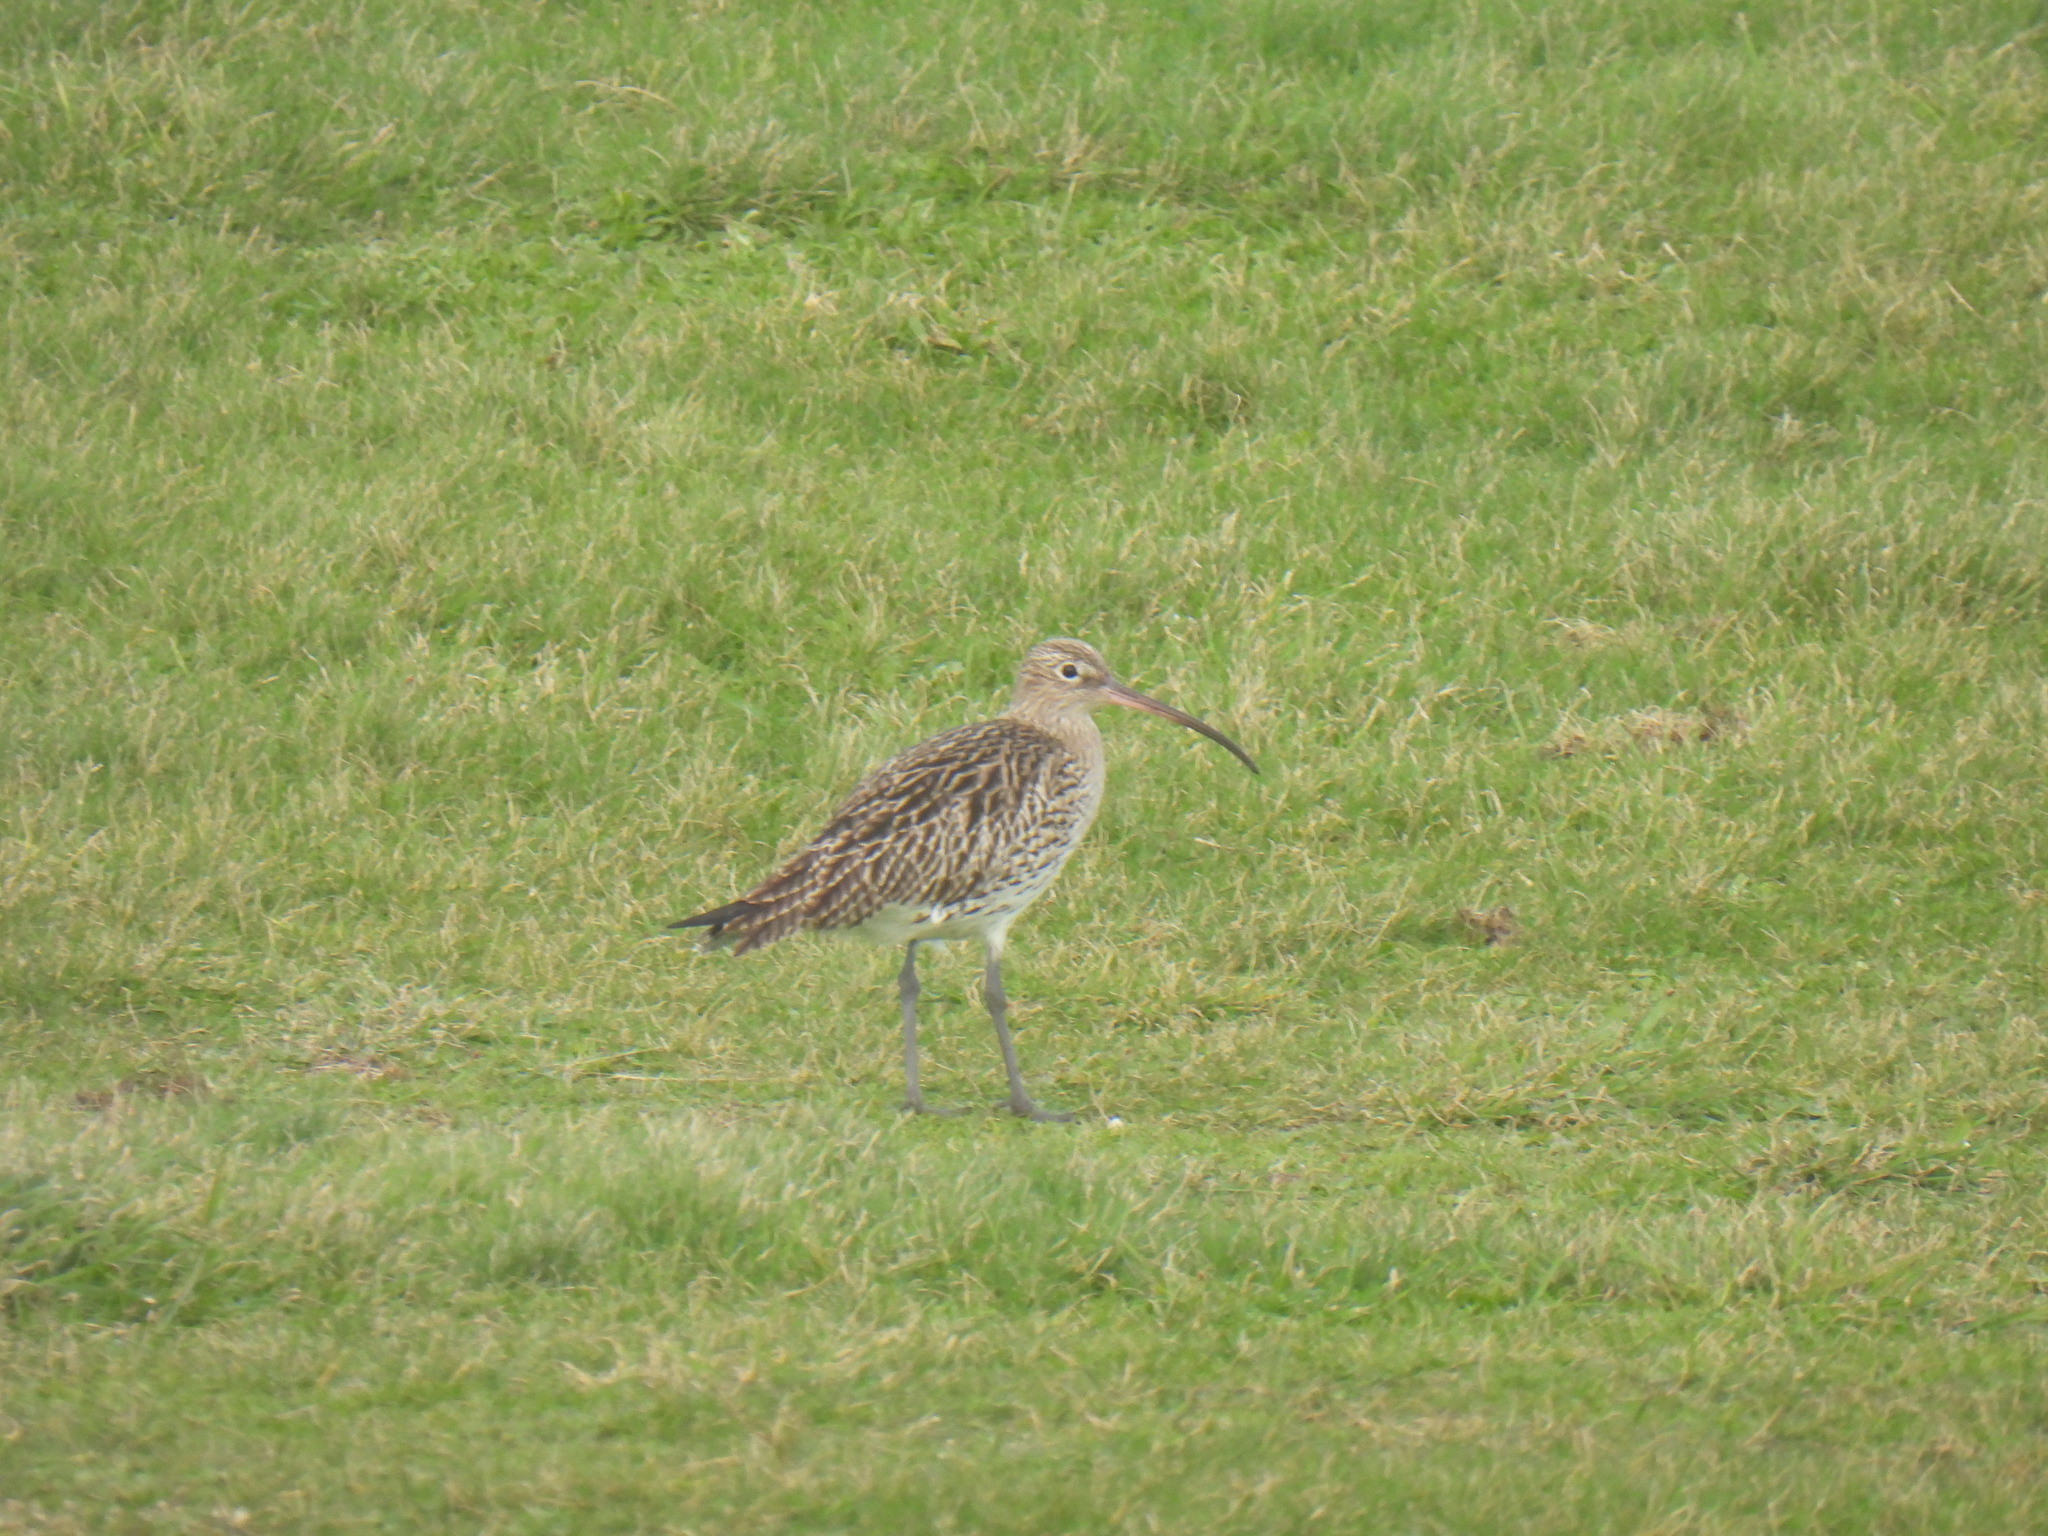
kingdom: Animalia
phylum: Chordata
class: Aves
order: Charadriiformes
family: Scolopacidae
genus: Numenius
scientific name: Numenius arquata
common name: Eurasian curlew
